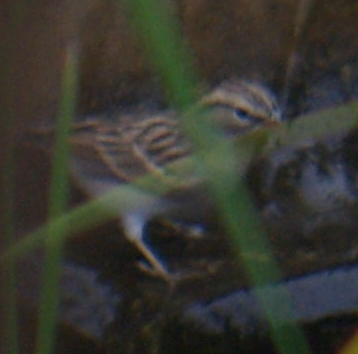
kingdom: Animalia
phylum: Chordata
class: Aves
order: Passeriformes
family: Passerellidae
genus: Spizella
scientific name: Spizella passerina
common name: Chipping sparrow
